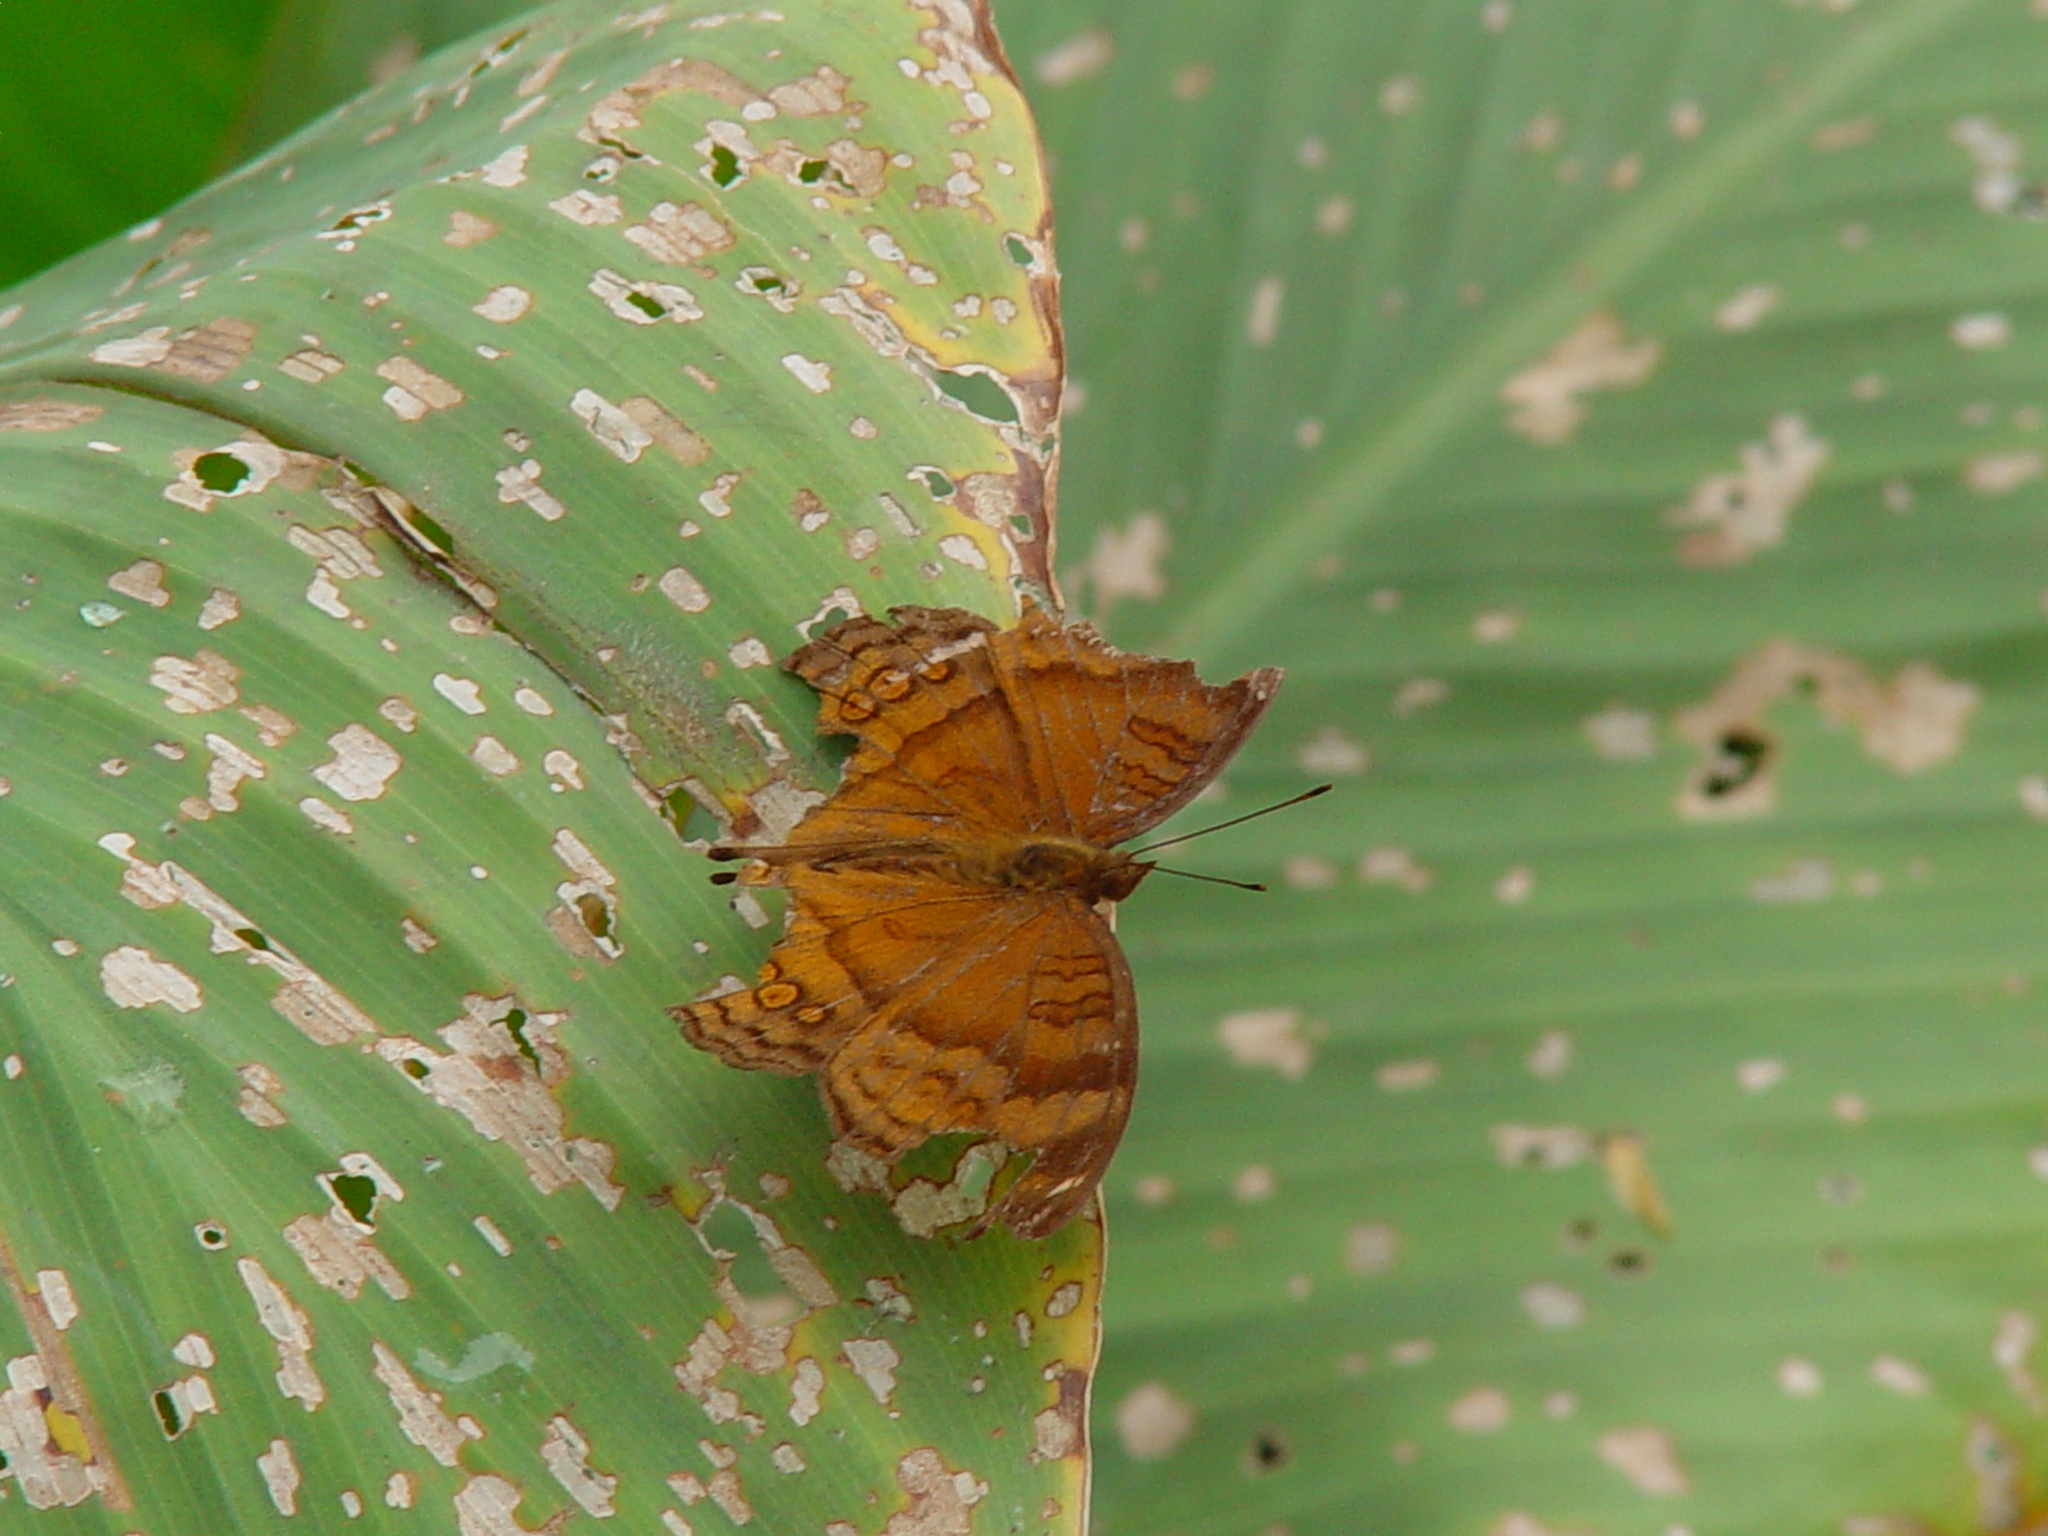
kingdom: Animalia
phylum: Arthropoda
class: Insecta
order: Lepidoptera
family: Nymphalidae
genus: Junonia
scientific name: Junonia hedonia
